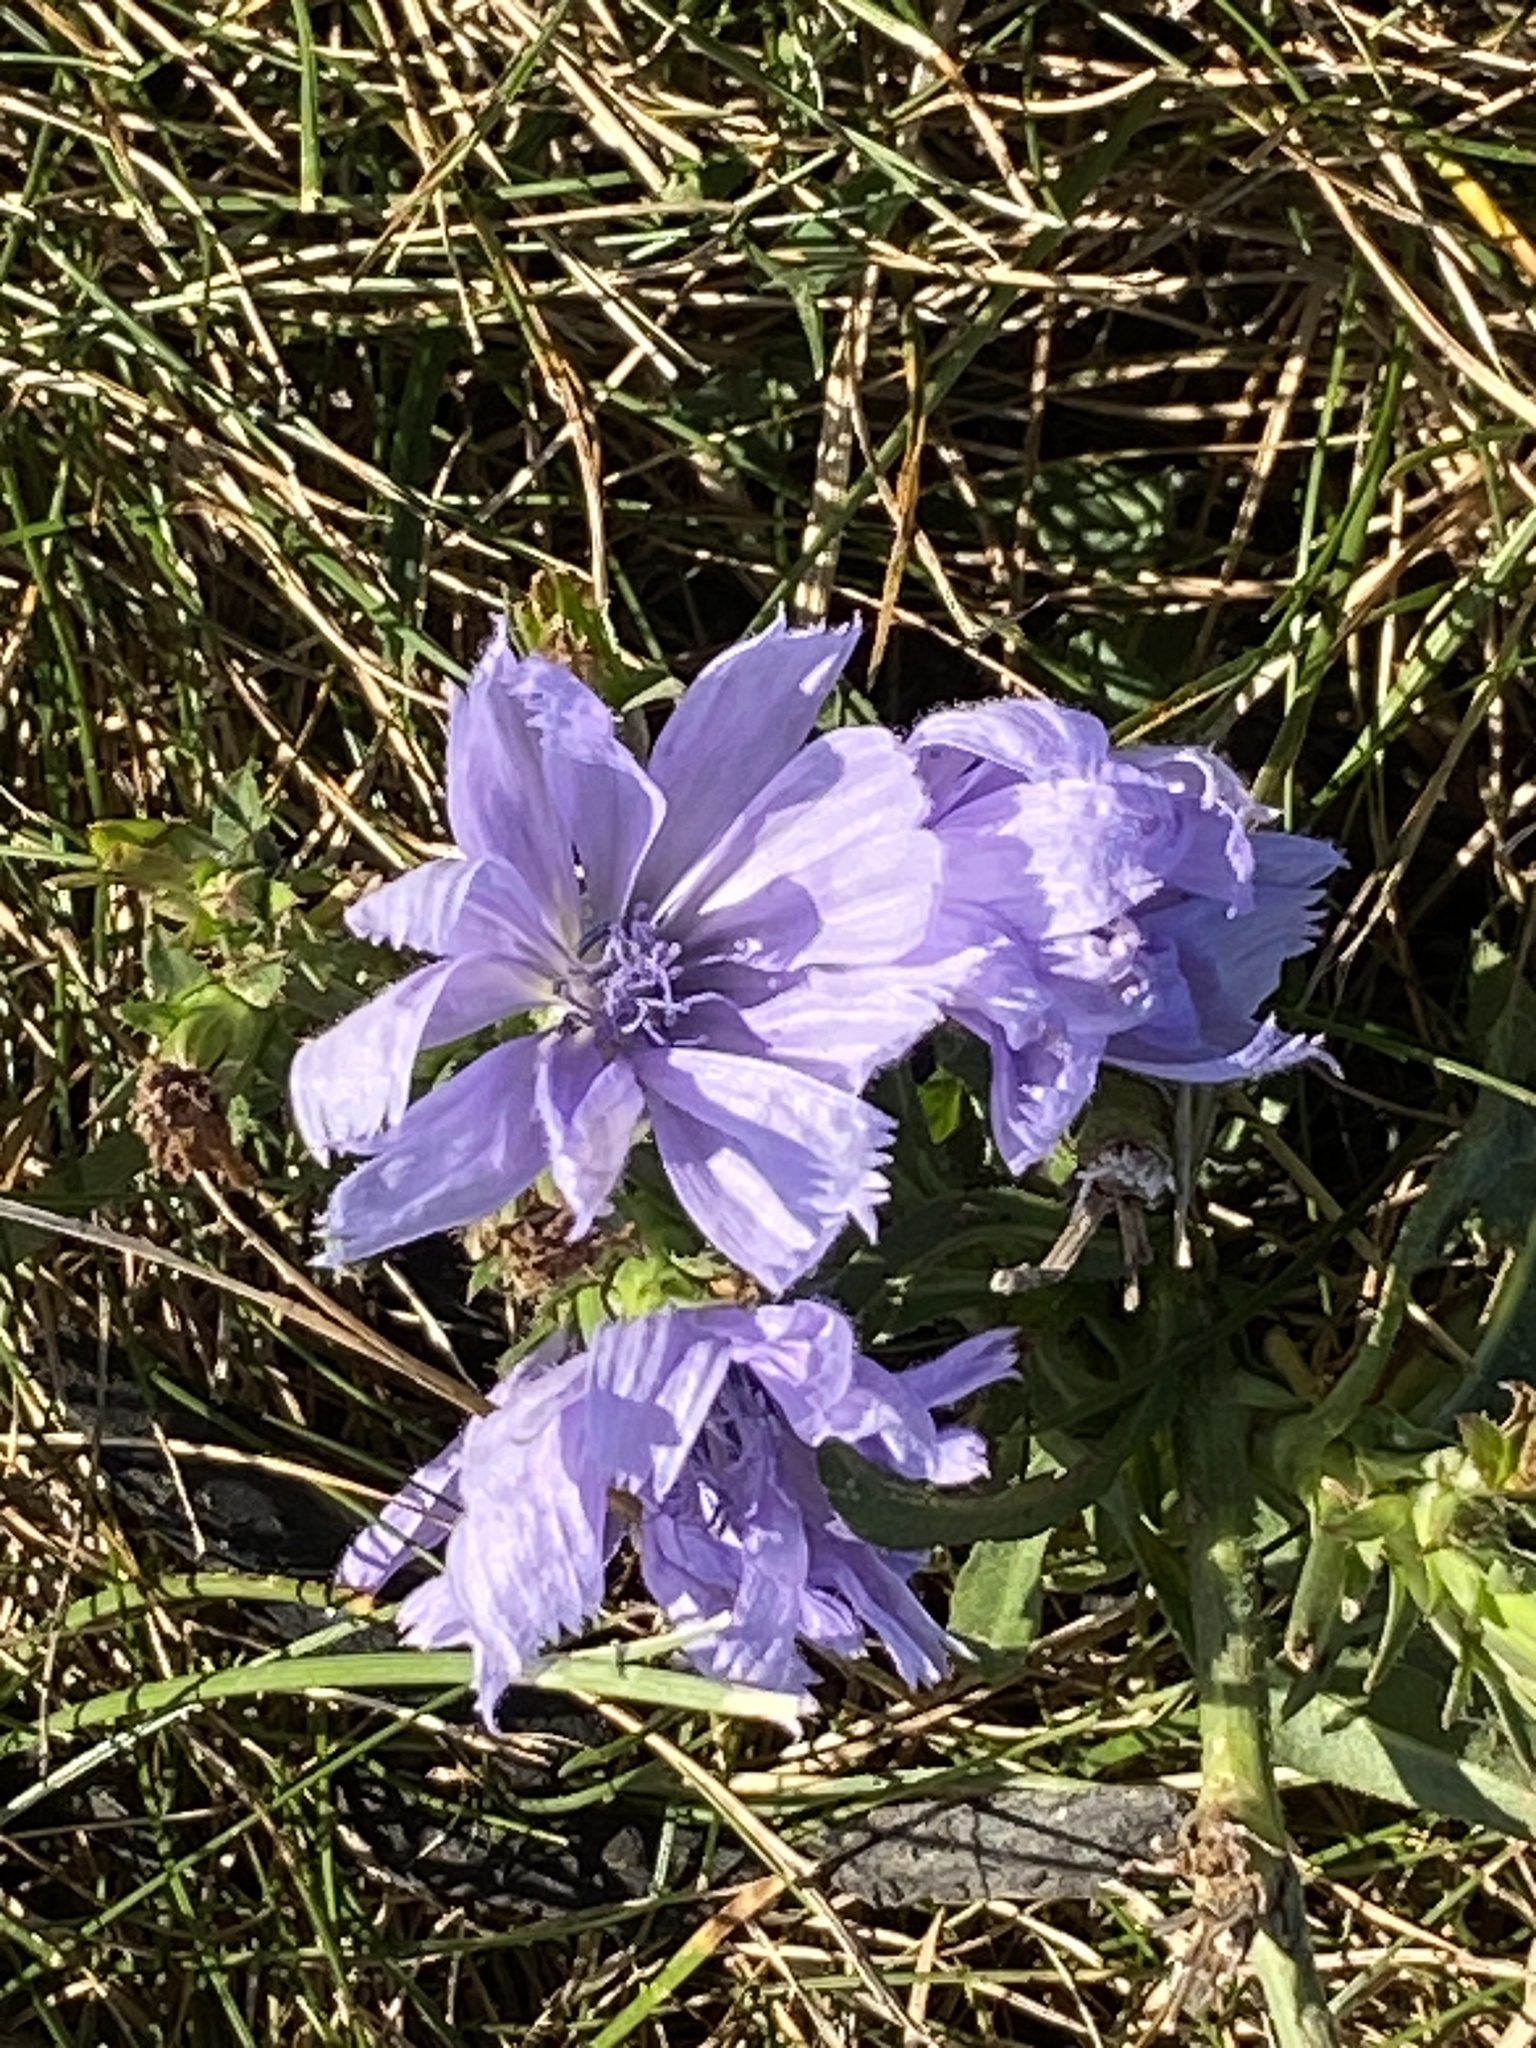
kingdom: Plantae
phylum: Tracheophyta
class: Magnoliopsida
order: Asterales
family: Asteraceae
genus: Cichorium
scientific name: Cichorium intybus
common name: Chicory
